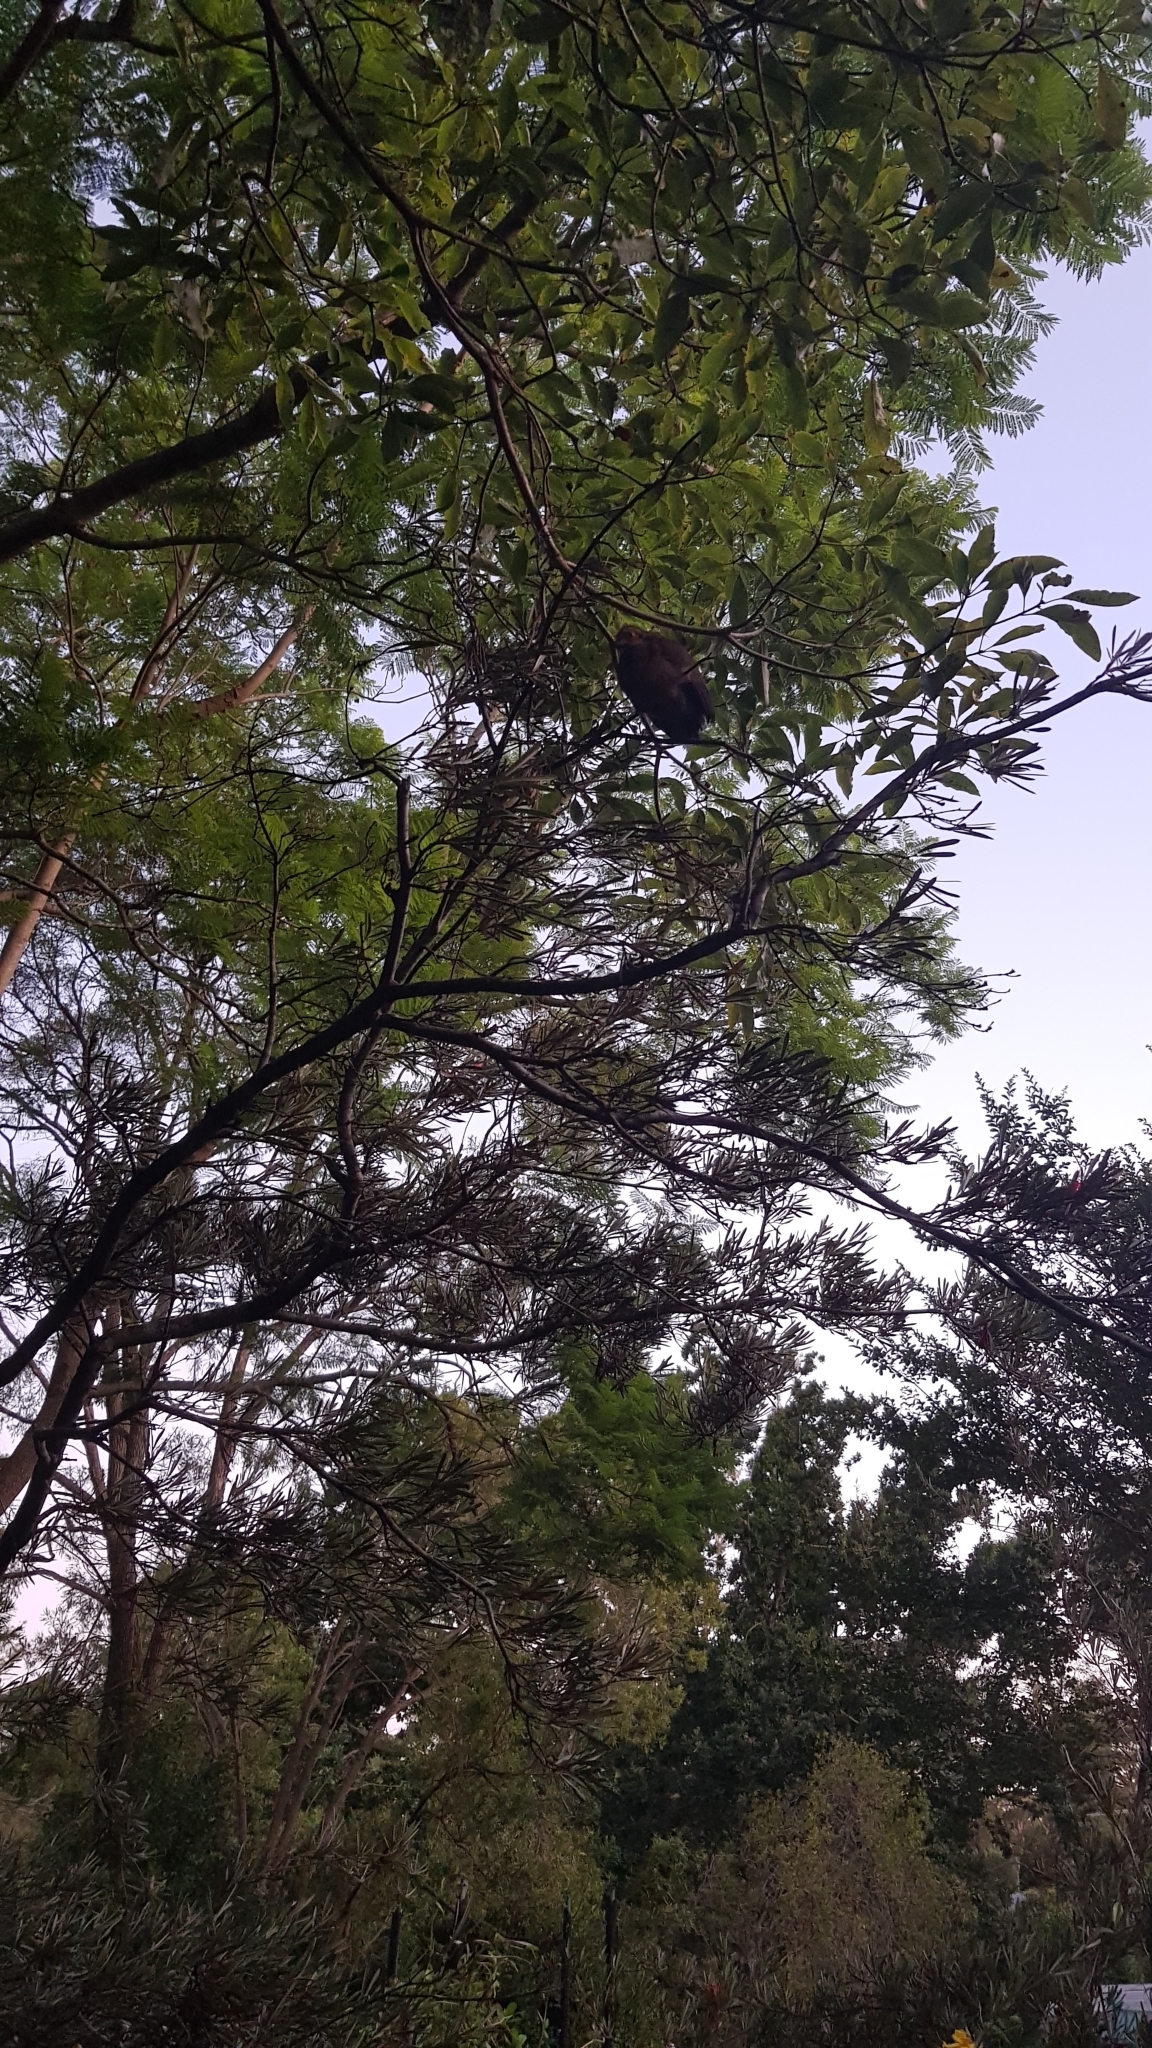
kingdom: Animalia
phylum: Chordata
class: Aves
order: Galliformes
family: Megapodiidae
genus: Alectura
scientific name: Alectura lathami
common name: Australian brushturkey
